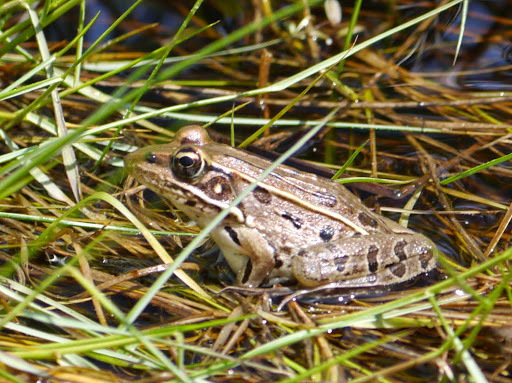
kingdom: Animalia
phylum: Chordata
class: Amphibia
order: Anura
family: Ranidae
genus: Lithobates
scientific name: Lithobates sphenocephalus
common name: Southern leopard frog
